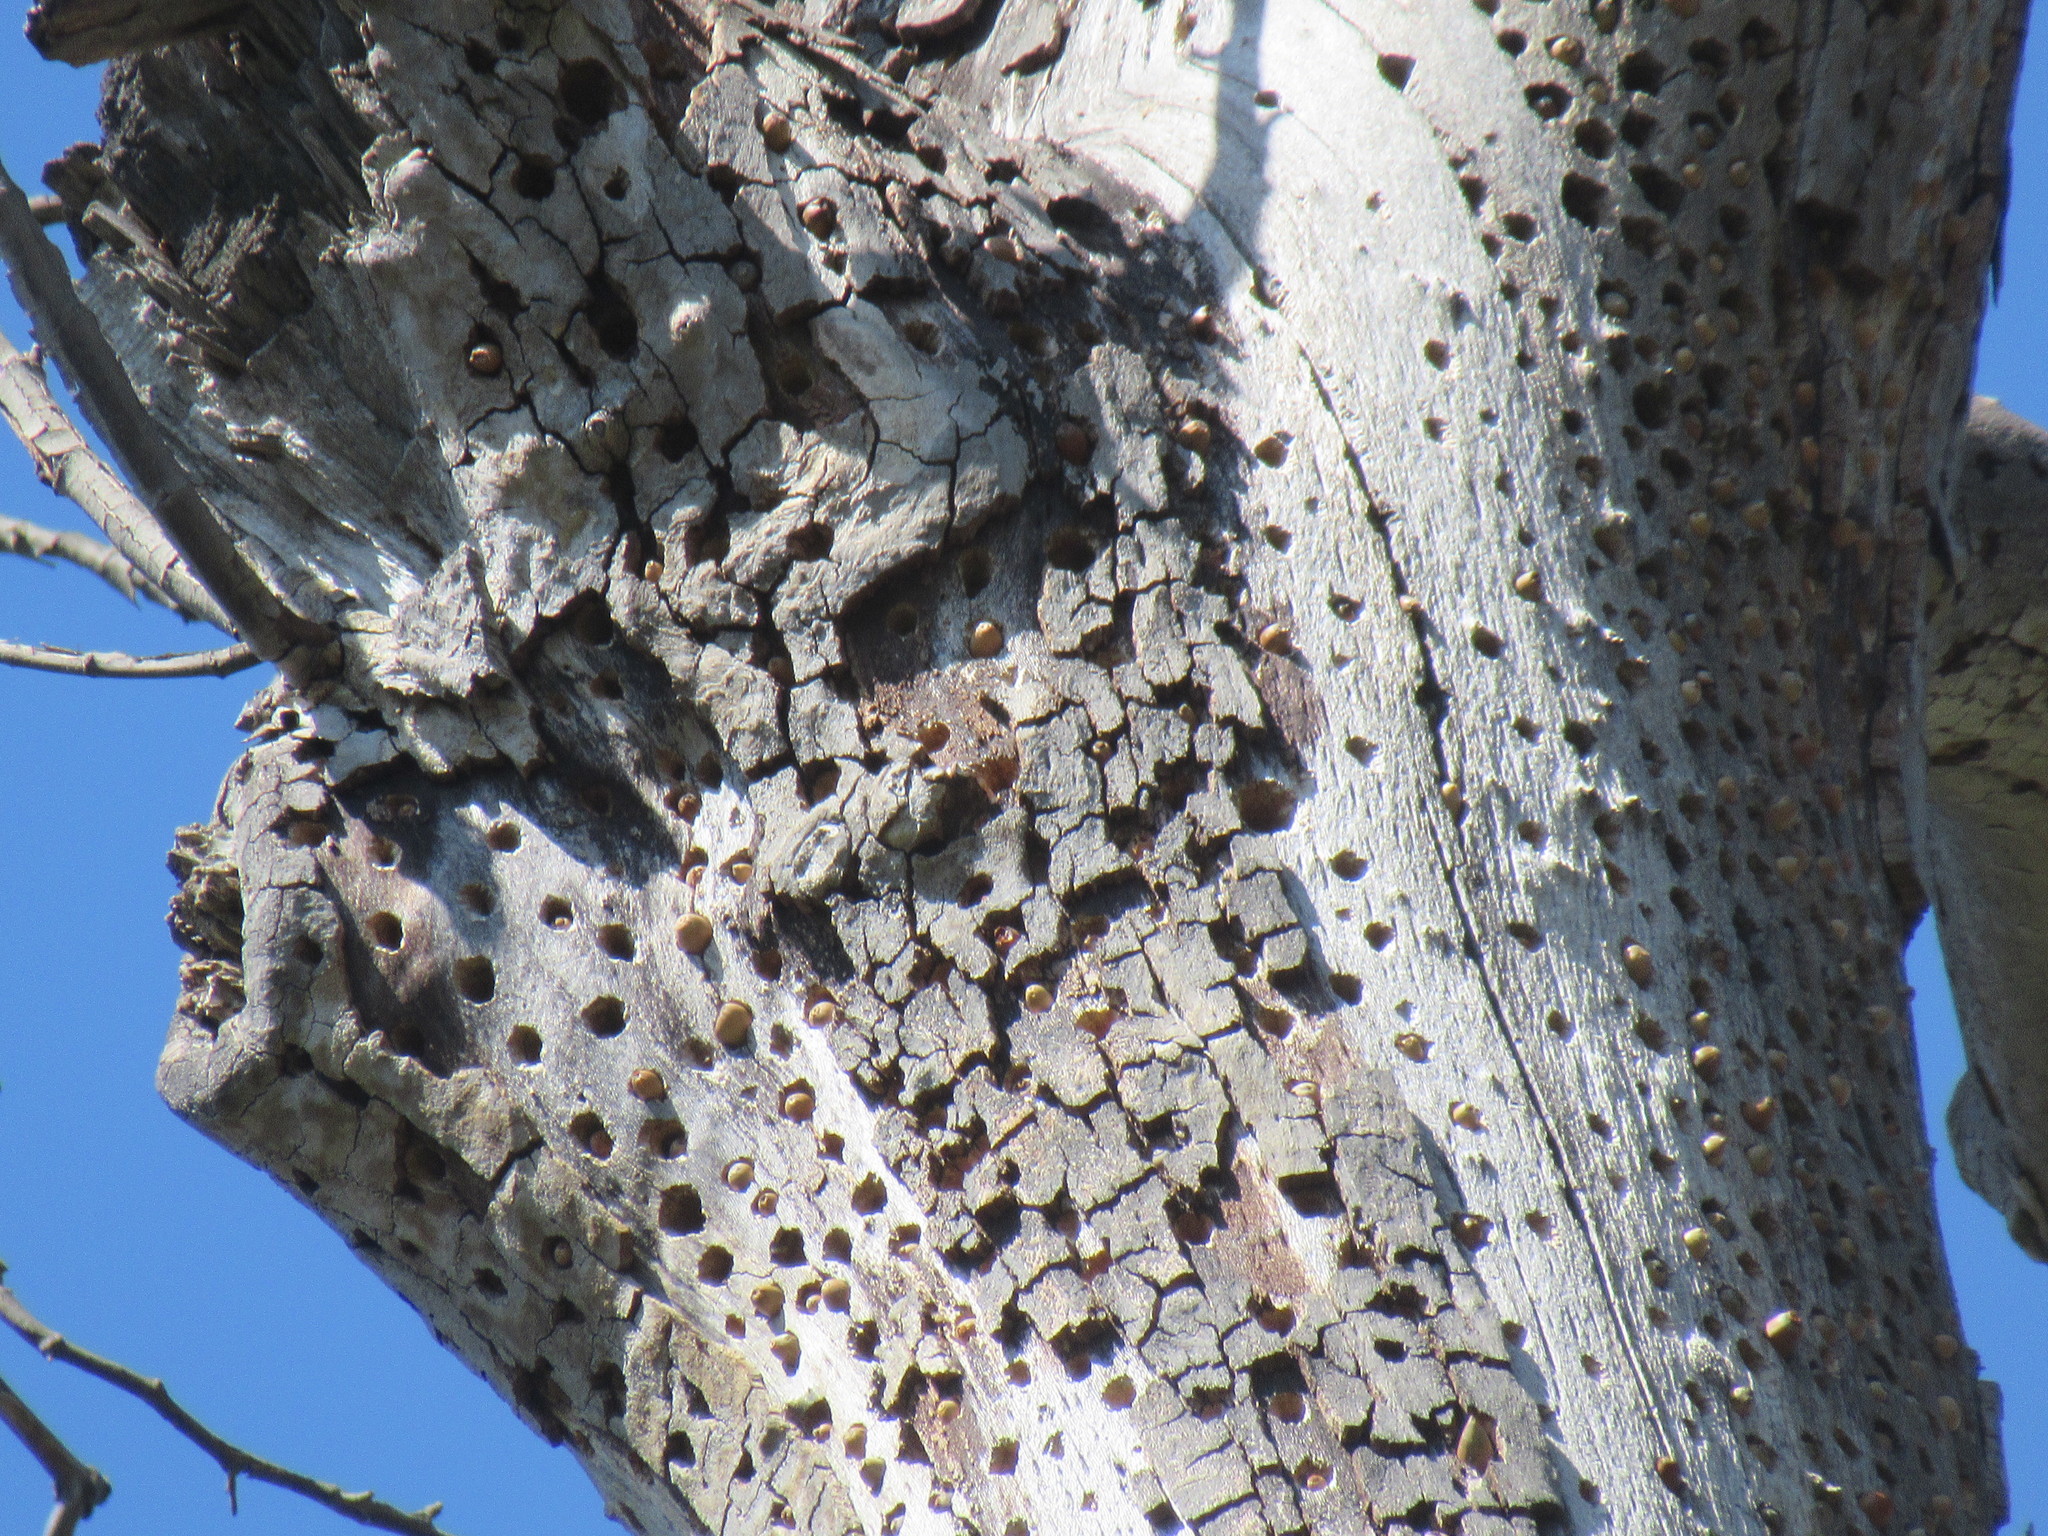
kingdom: Animalia
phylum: Chordata
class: Aves
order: Piciformes
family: Picidae
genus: Melanerpes
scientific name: Melanerpes formicivorus
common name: Acorn woodpecker
